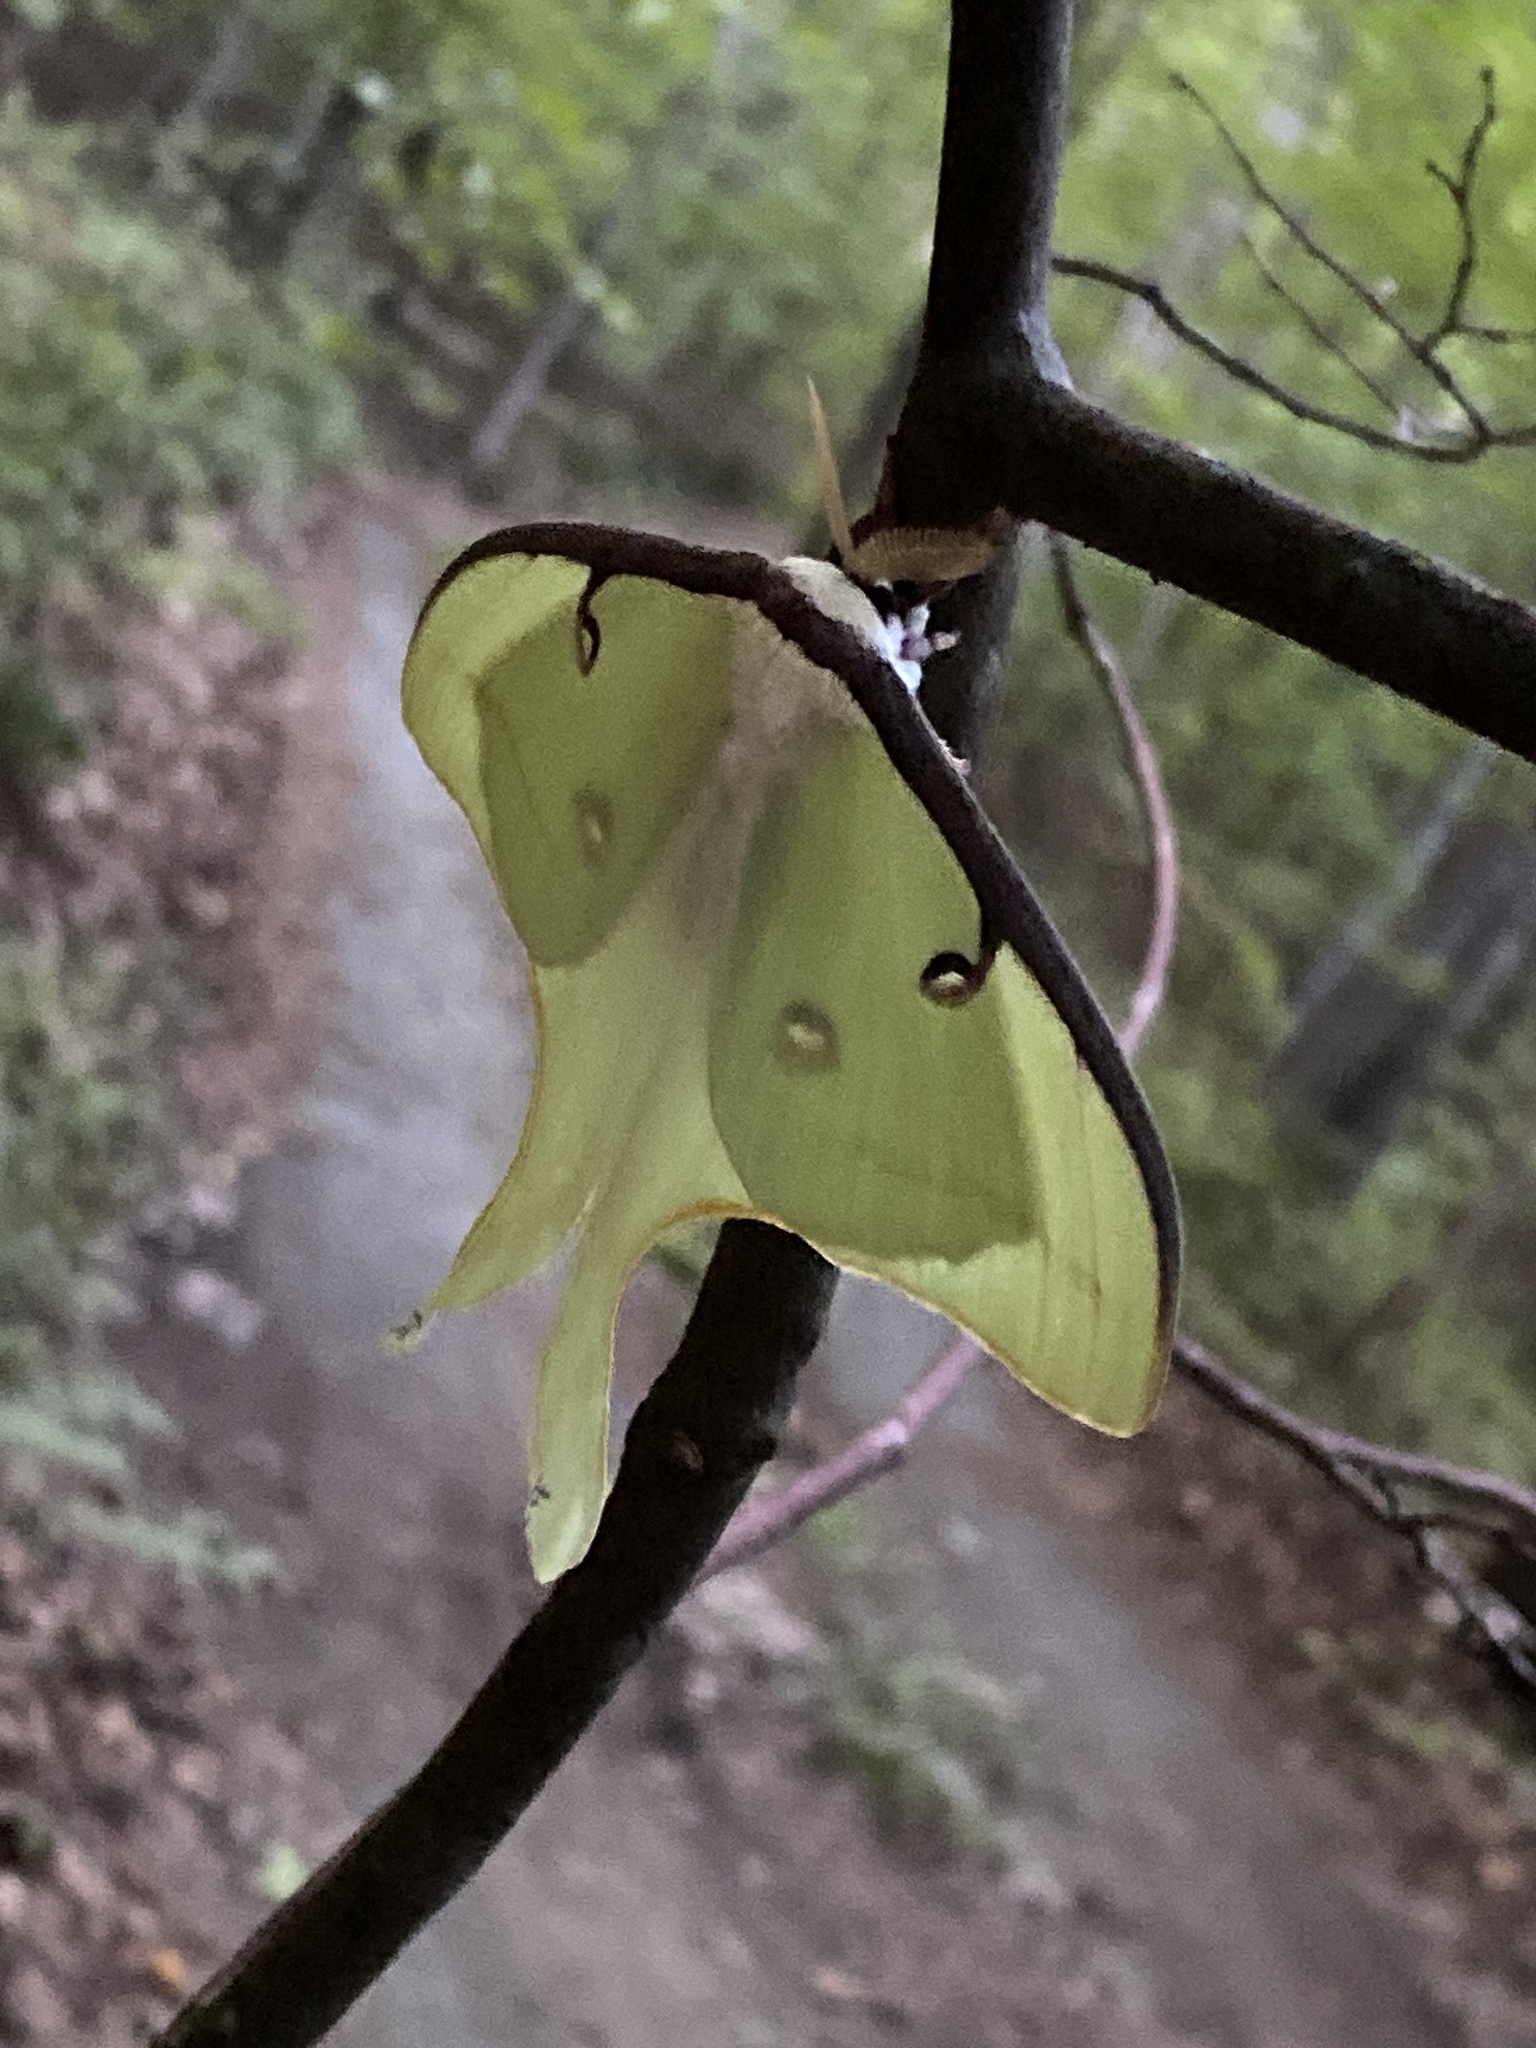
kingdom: Animalia
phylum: Arthropoda
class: Insecta
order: Lepidoptera
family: Saturniidae
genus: Actias
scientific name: Actias luna
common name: Luna moth
